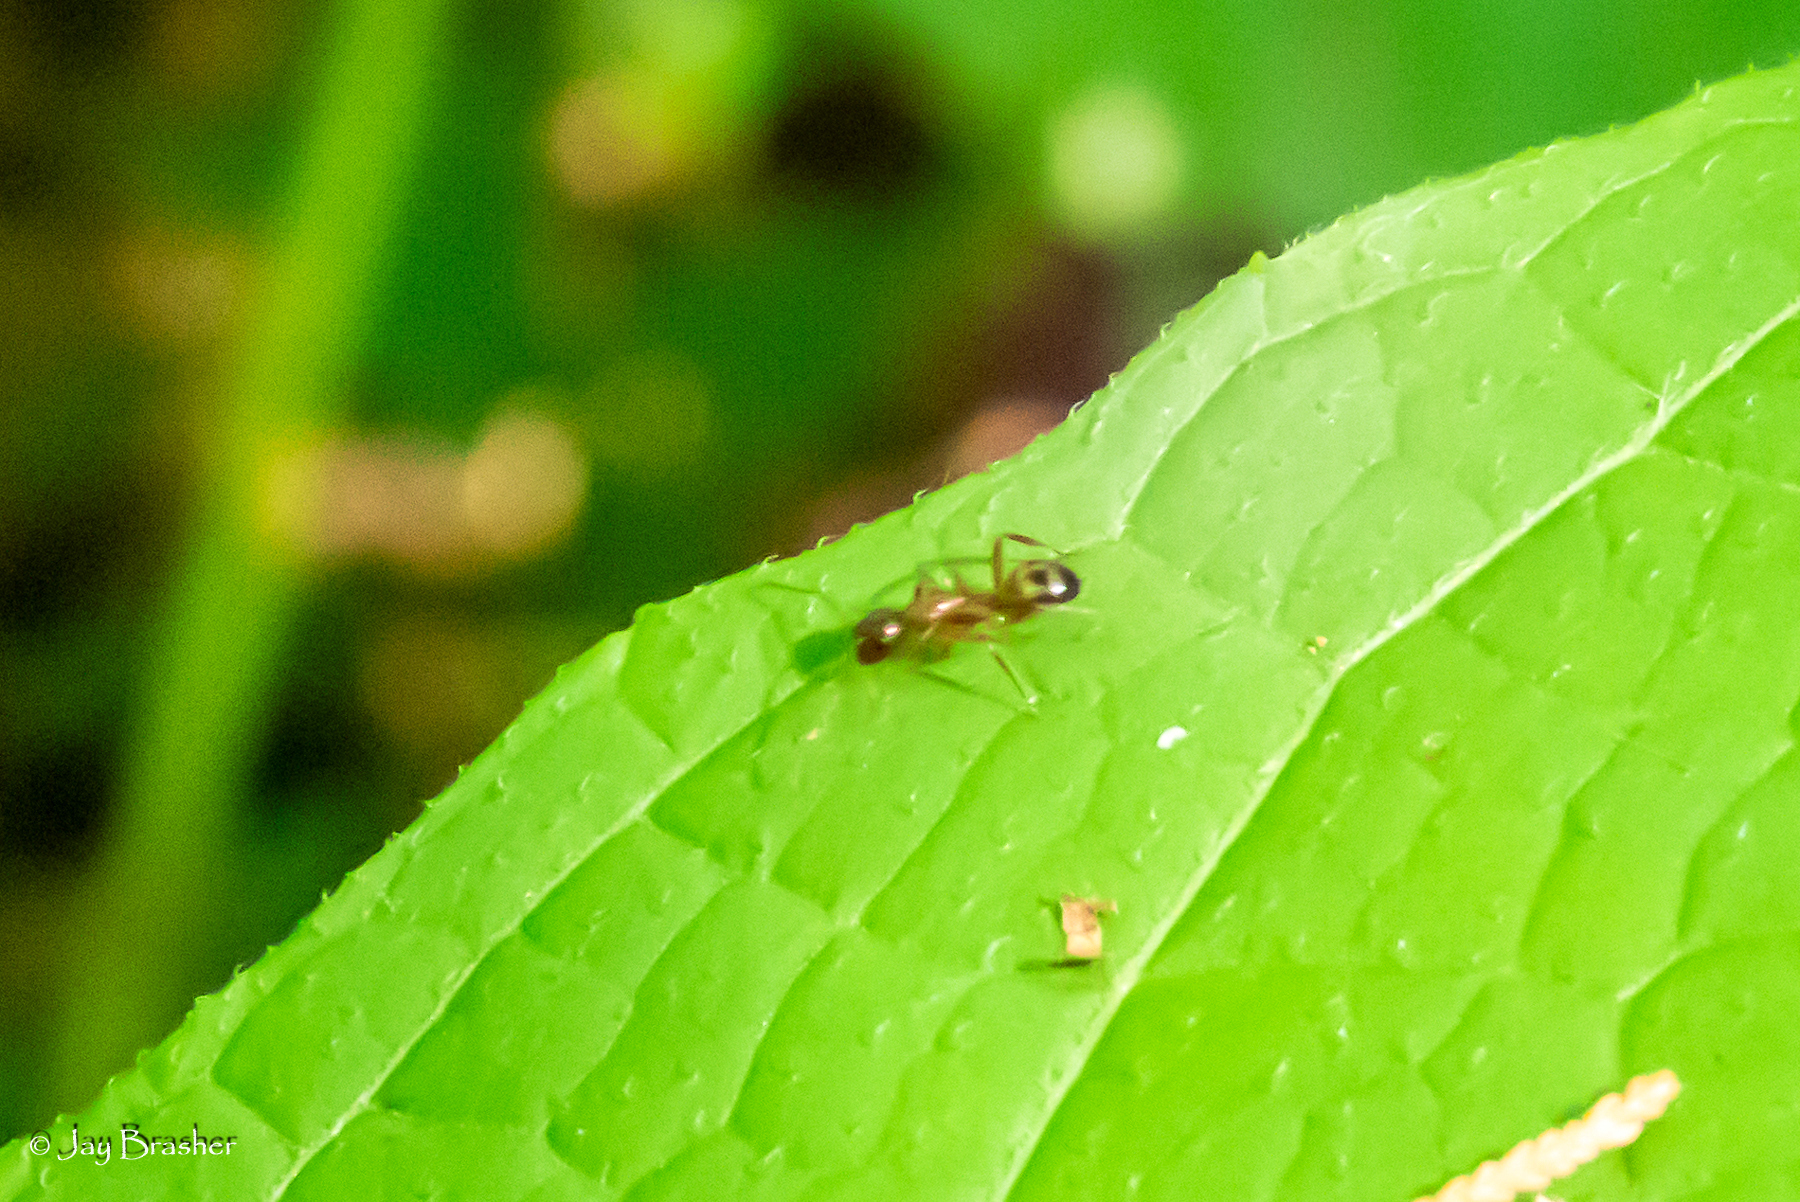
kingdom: Animalia
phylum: Arthropoda
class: Insecta
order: Hymenoptera
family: Formicidae
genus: Camponotus
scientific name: Camponotus subbarbatus
